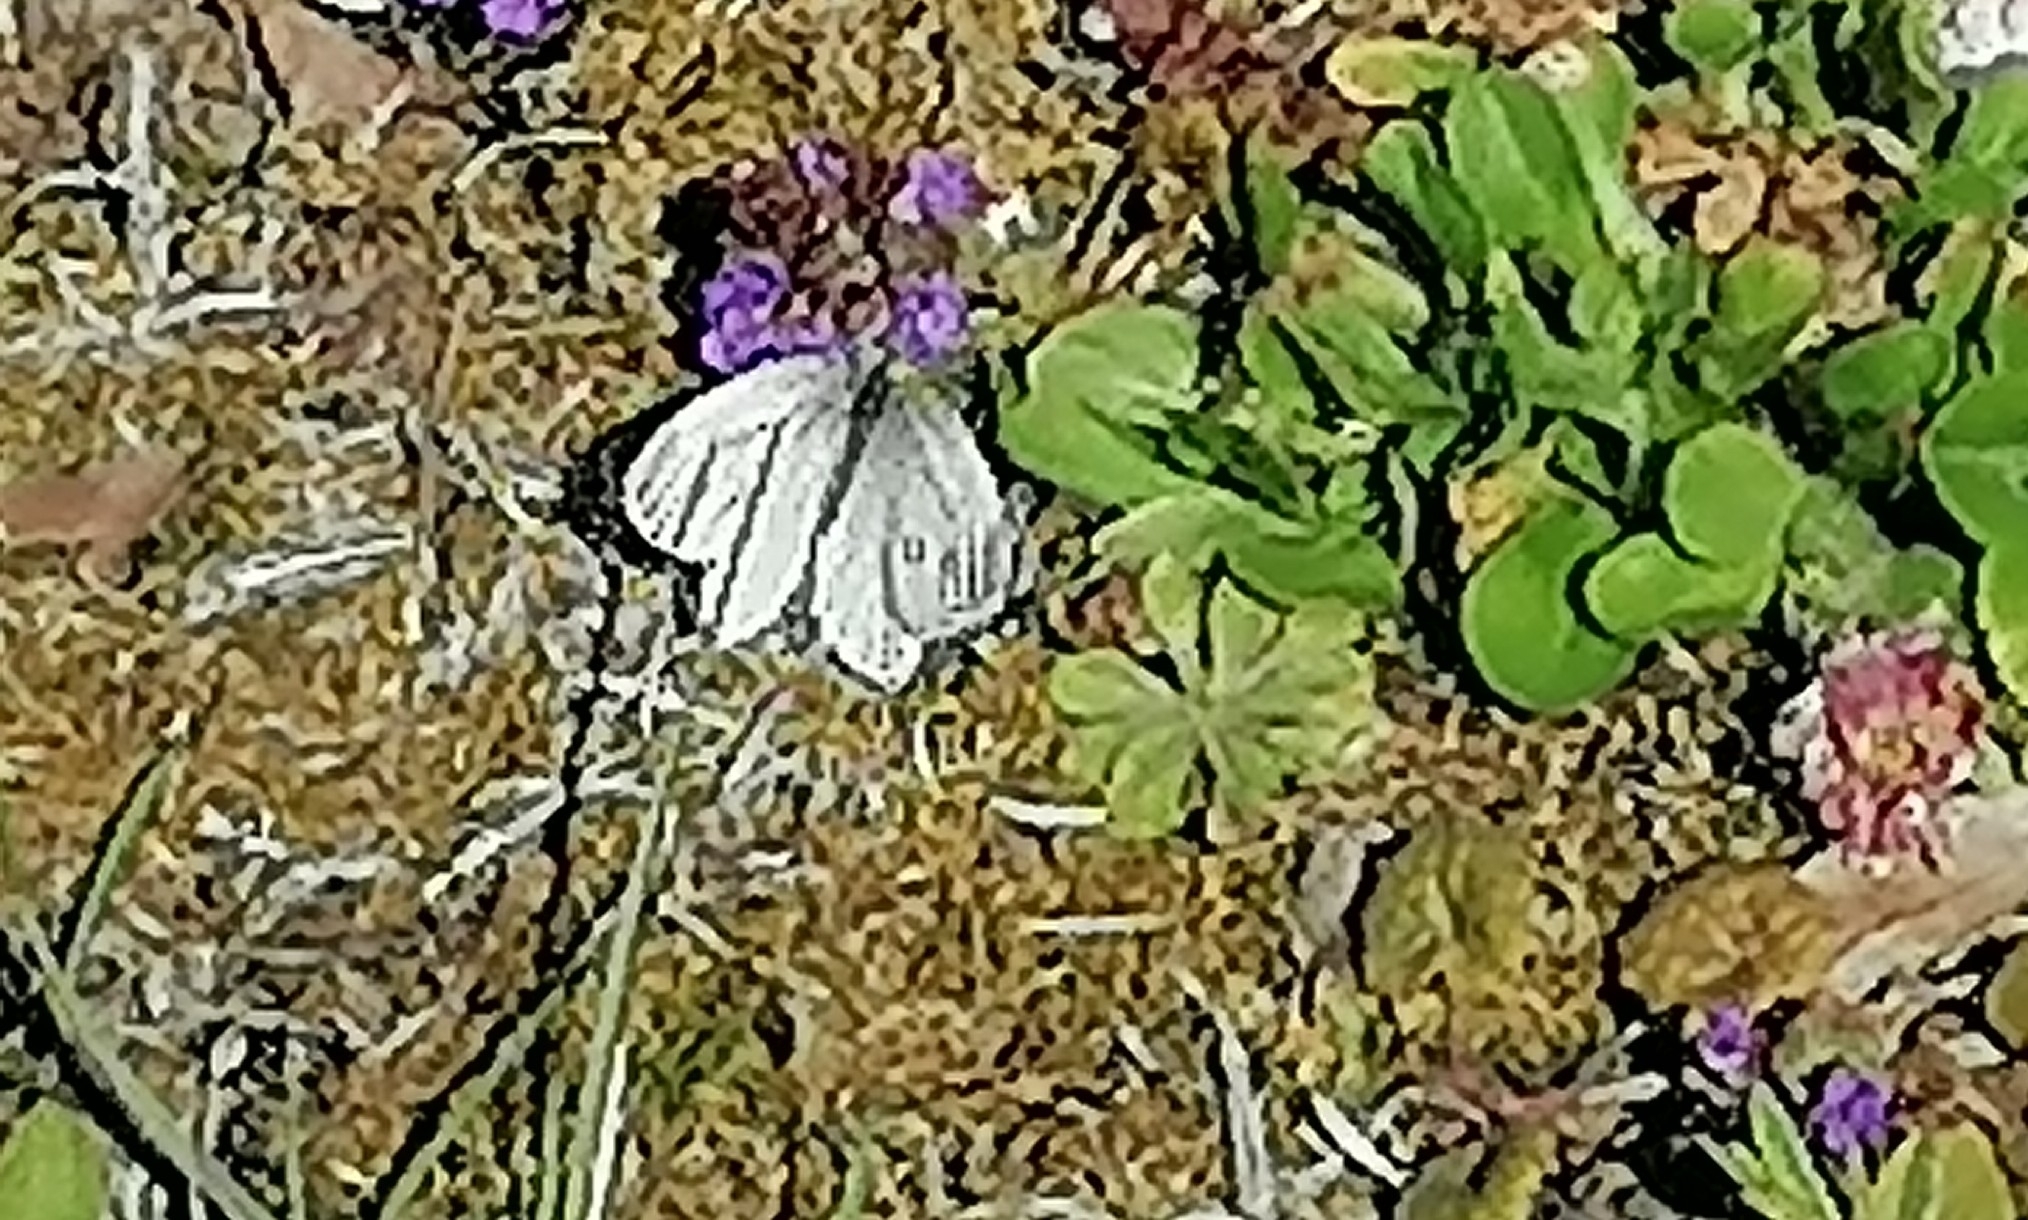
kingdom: Animalia
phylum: Arthropoda
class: Insecta
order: Lepidoptera
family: Pieridae
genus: Pieris
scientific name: Pieris napi
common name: Green-veined white
